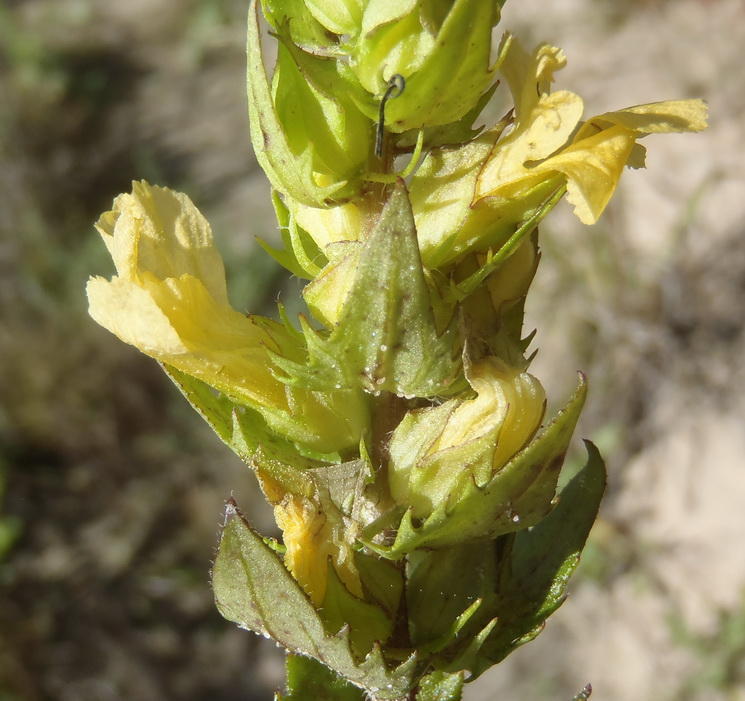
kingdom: Plantae
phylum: Tracheophyta
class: Magnoliopsida
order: Lamiales
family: Orobanchaceae
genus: Alectra
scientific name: Alectra sessiliflora
